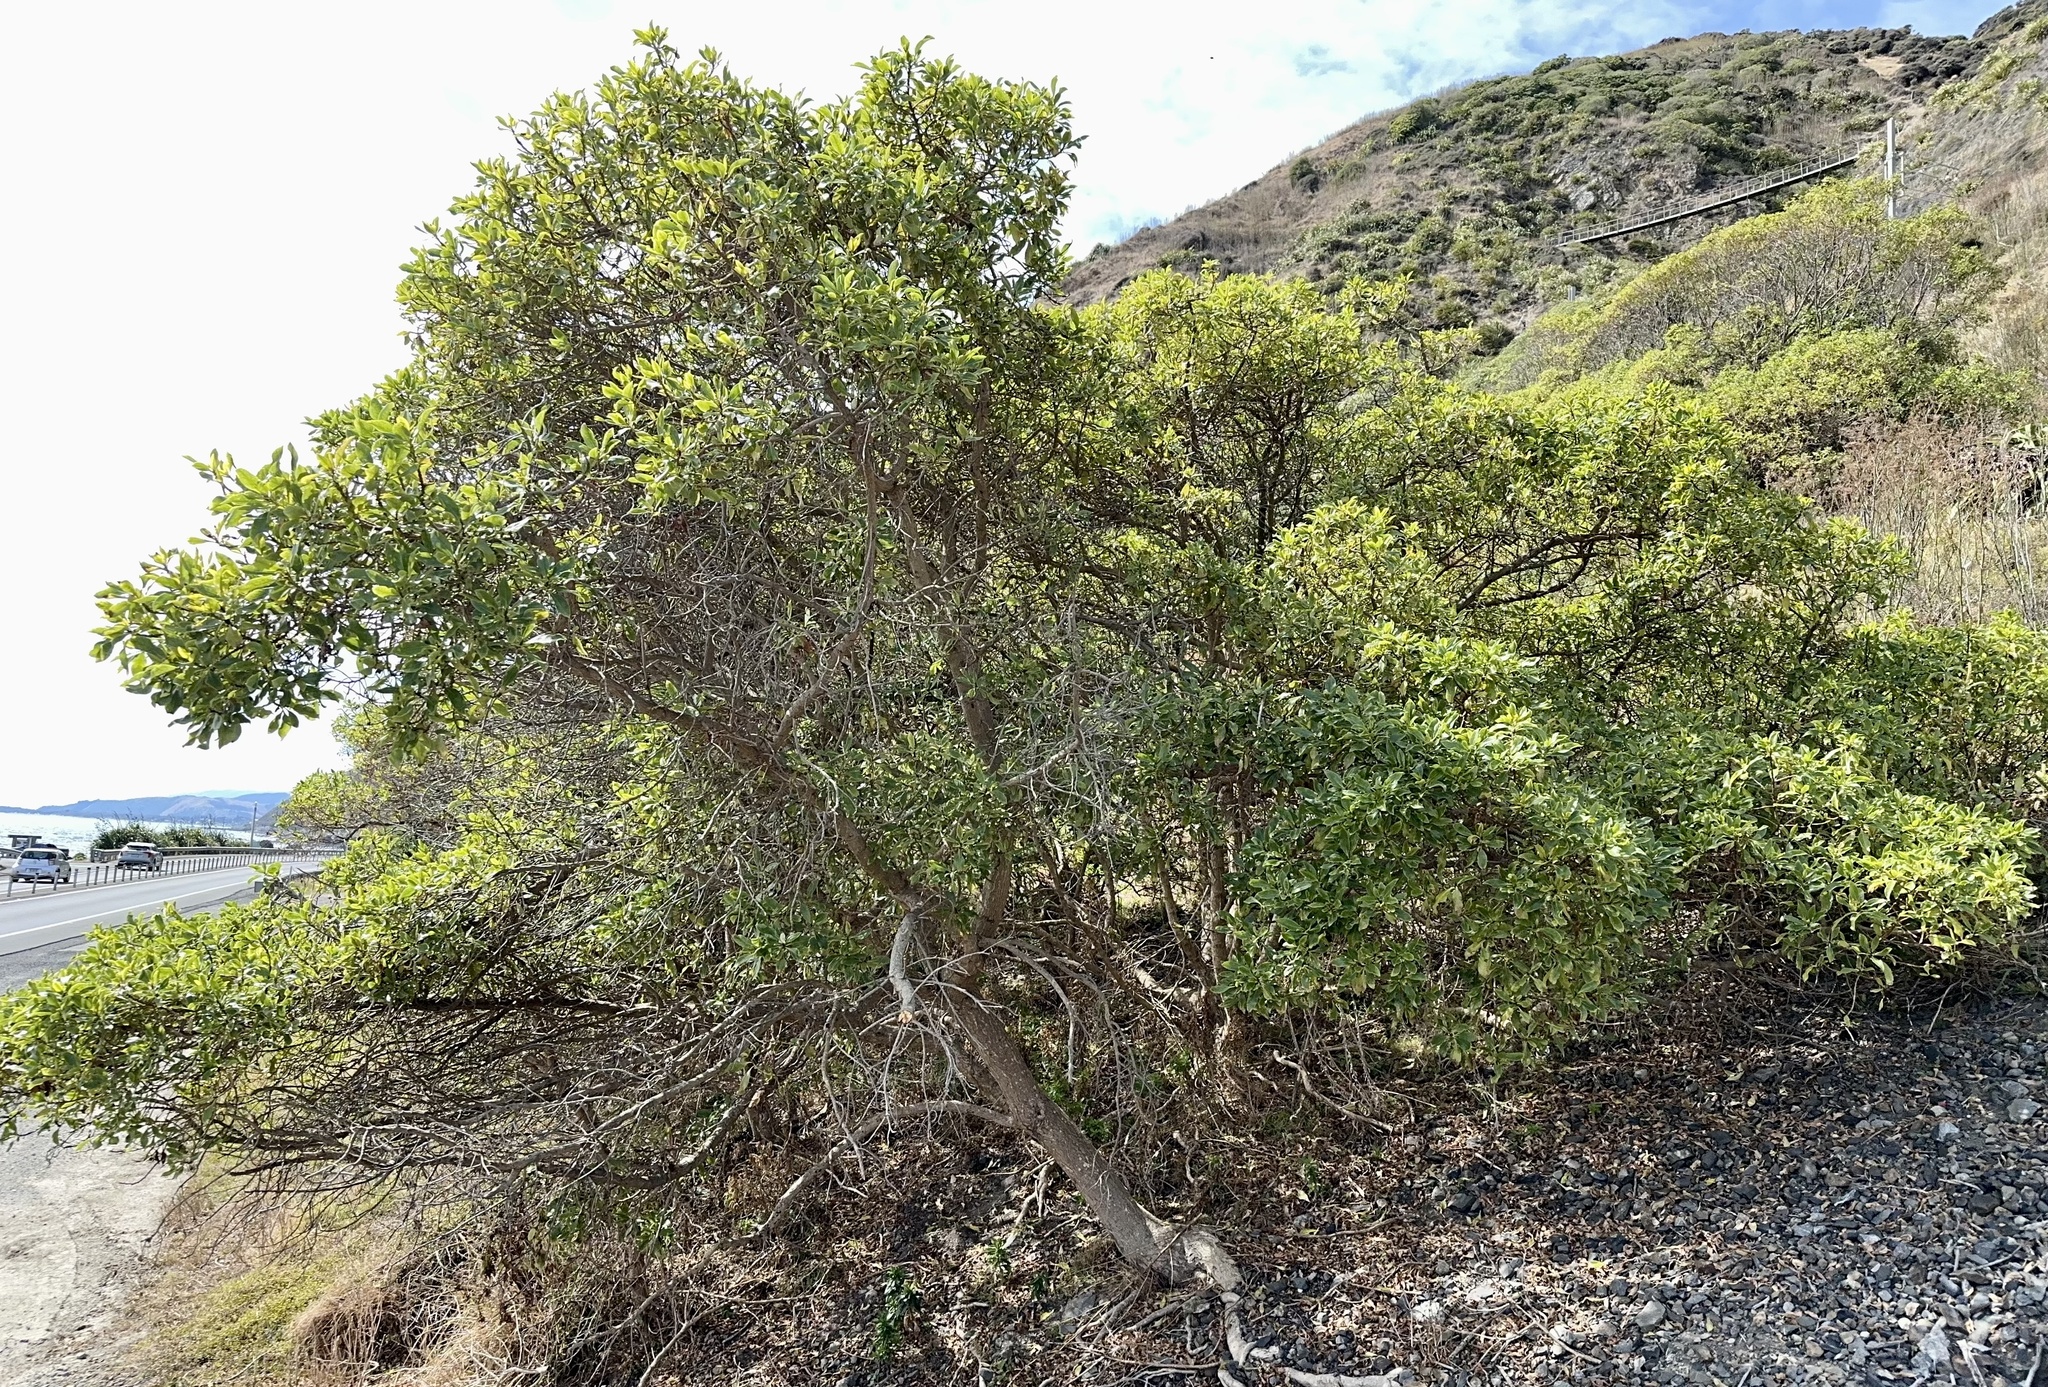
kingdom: Plantae
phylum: Tracheophyta
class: Magnoliopsida
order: Lamiales
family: Scrophulariaceae
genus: Myoporum
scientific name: Myoporum laetum
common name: Ngaio tree
